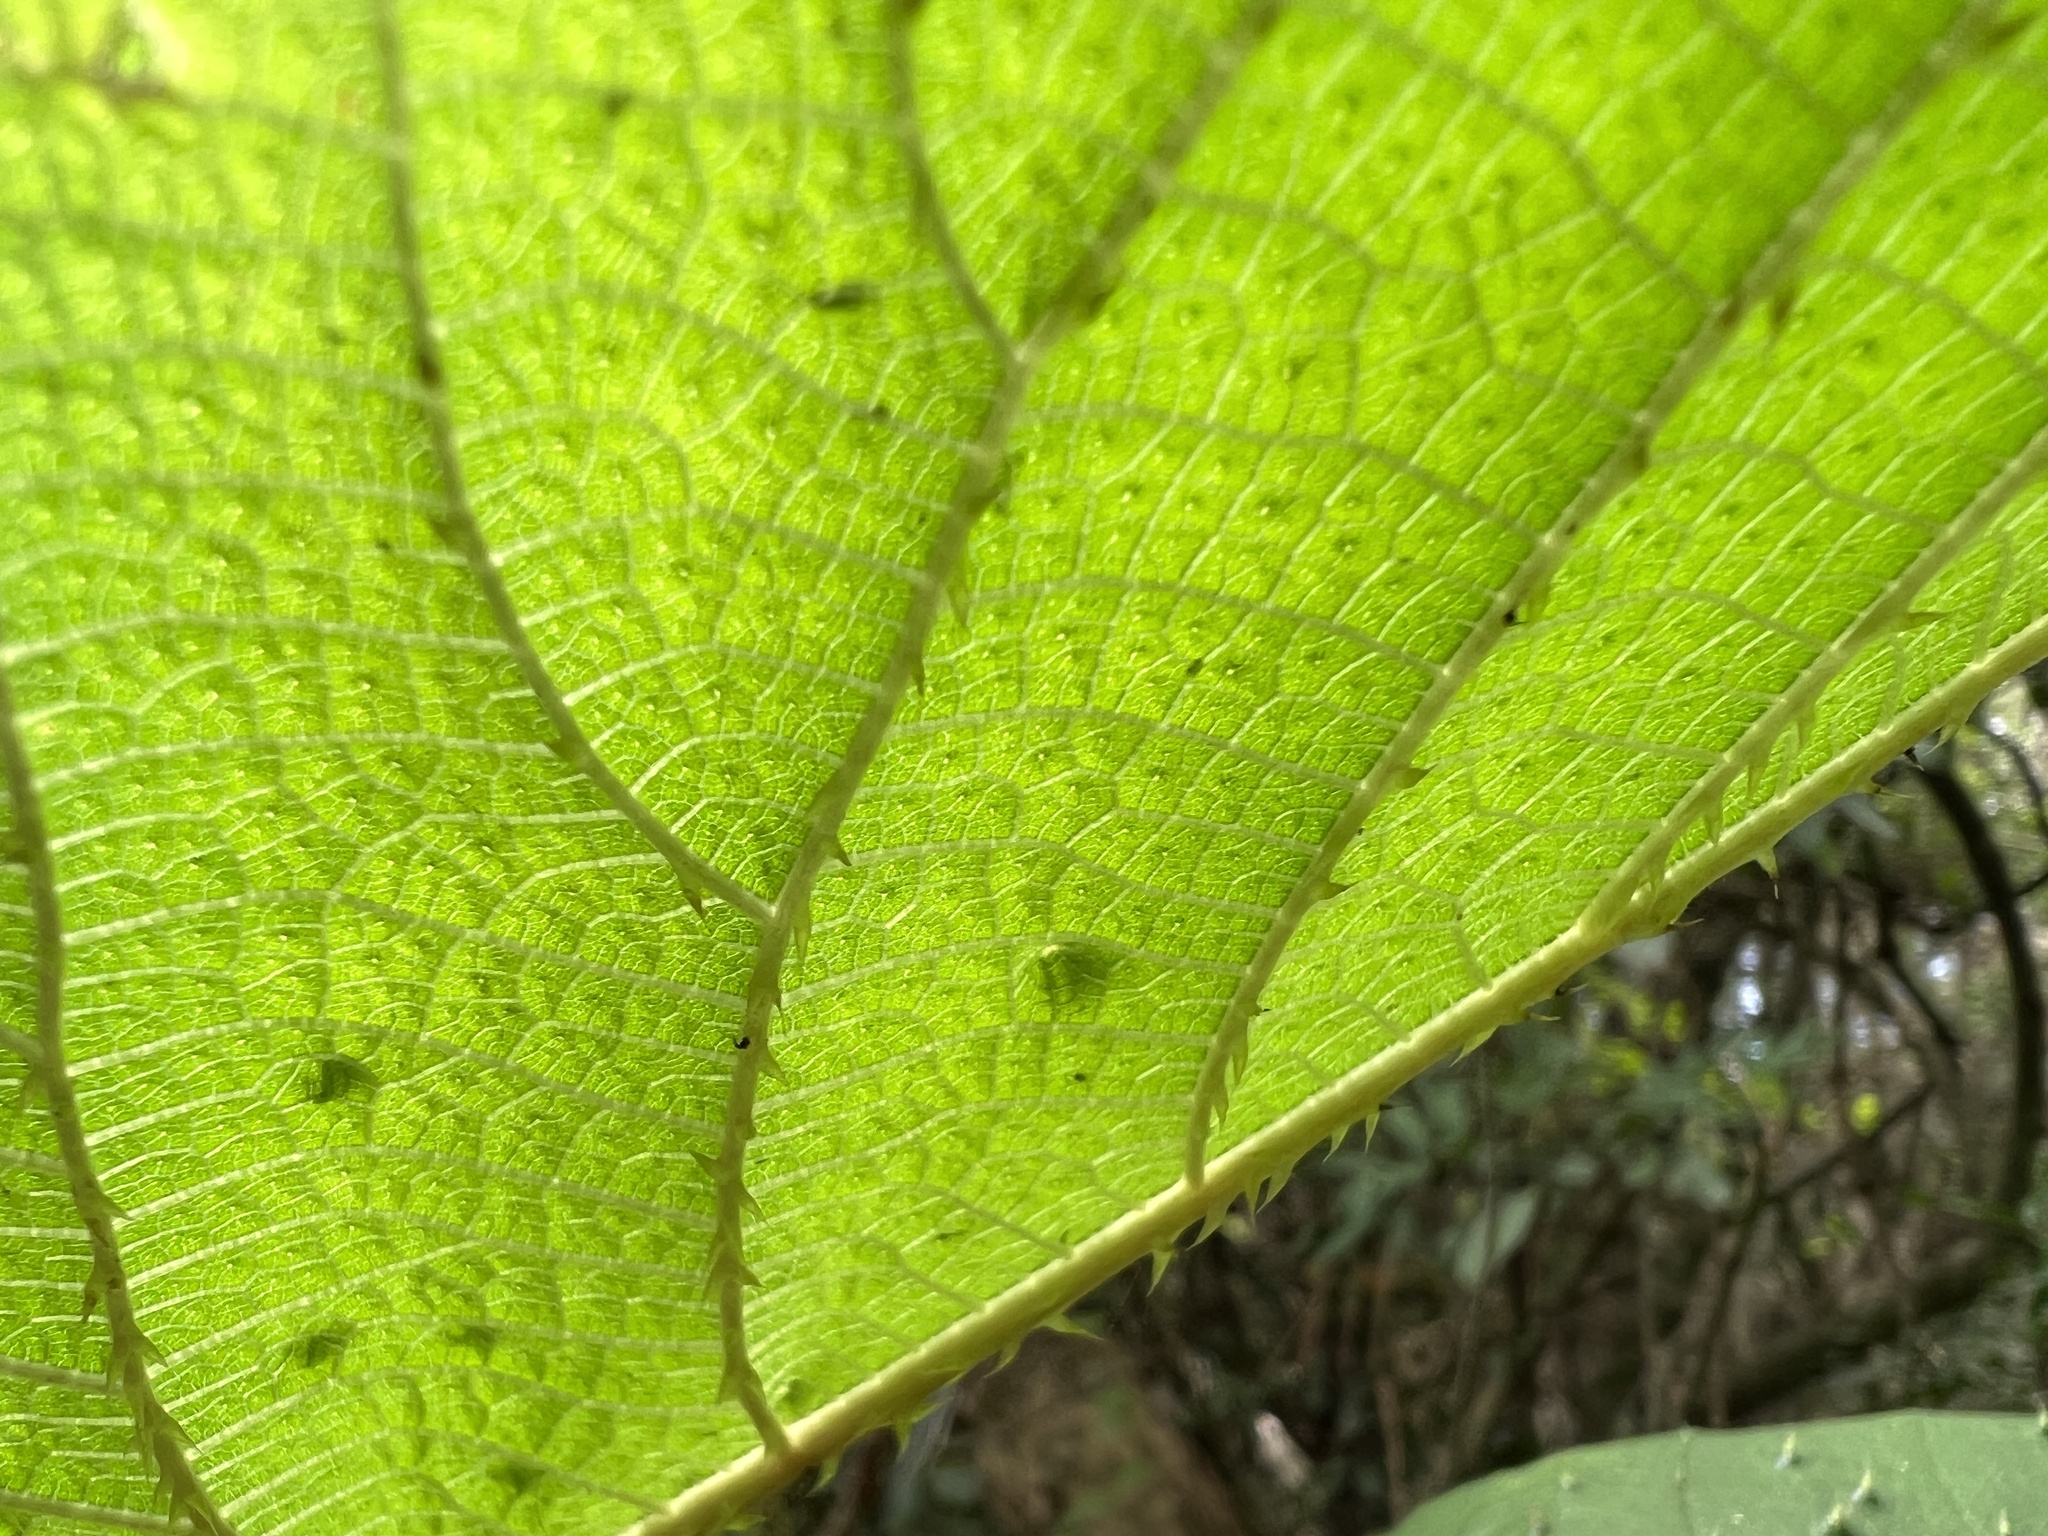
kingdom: Plantae
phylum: Tracheophyta
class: Magnoliopsida
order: Rosales
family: Urticaceae
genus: Urera
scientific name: Urera baccifera
